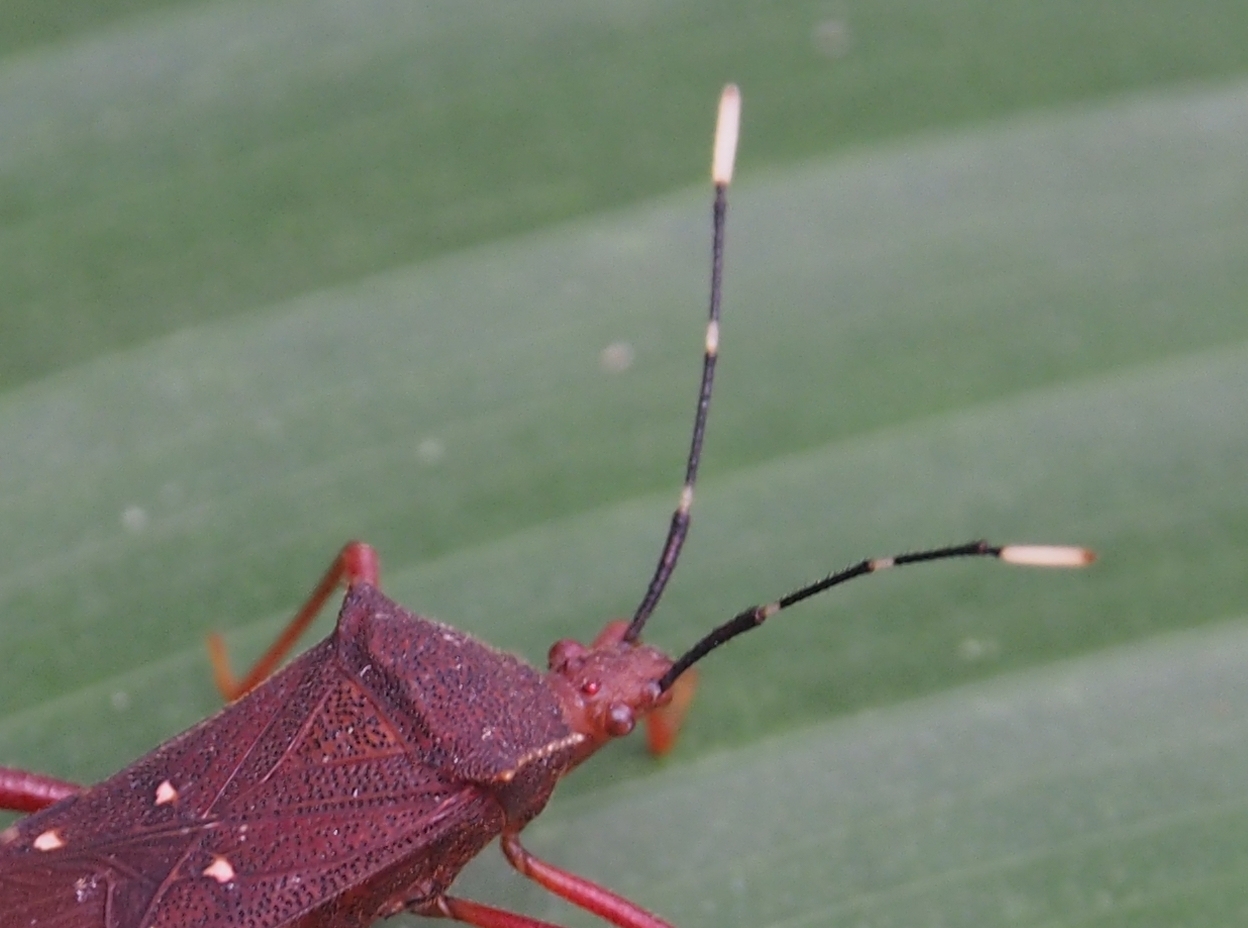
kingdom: Animalia
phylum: Arthropoda
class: Insecta
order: Hemiptera
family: Coreidae
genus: Leptoscelis
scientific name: Leptoscelis quadrisignatus
